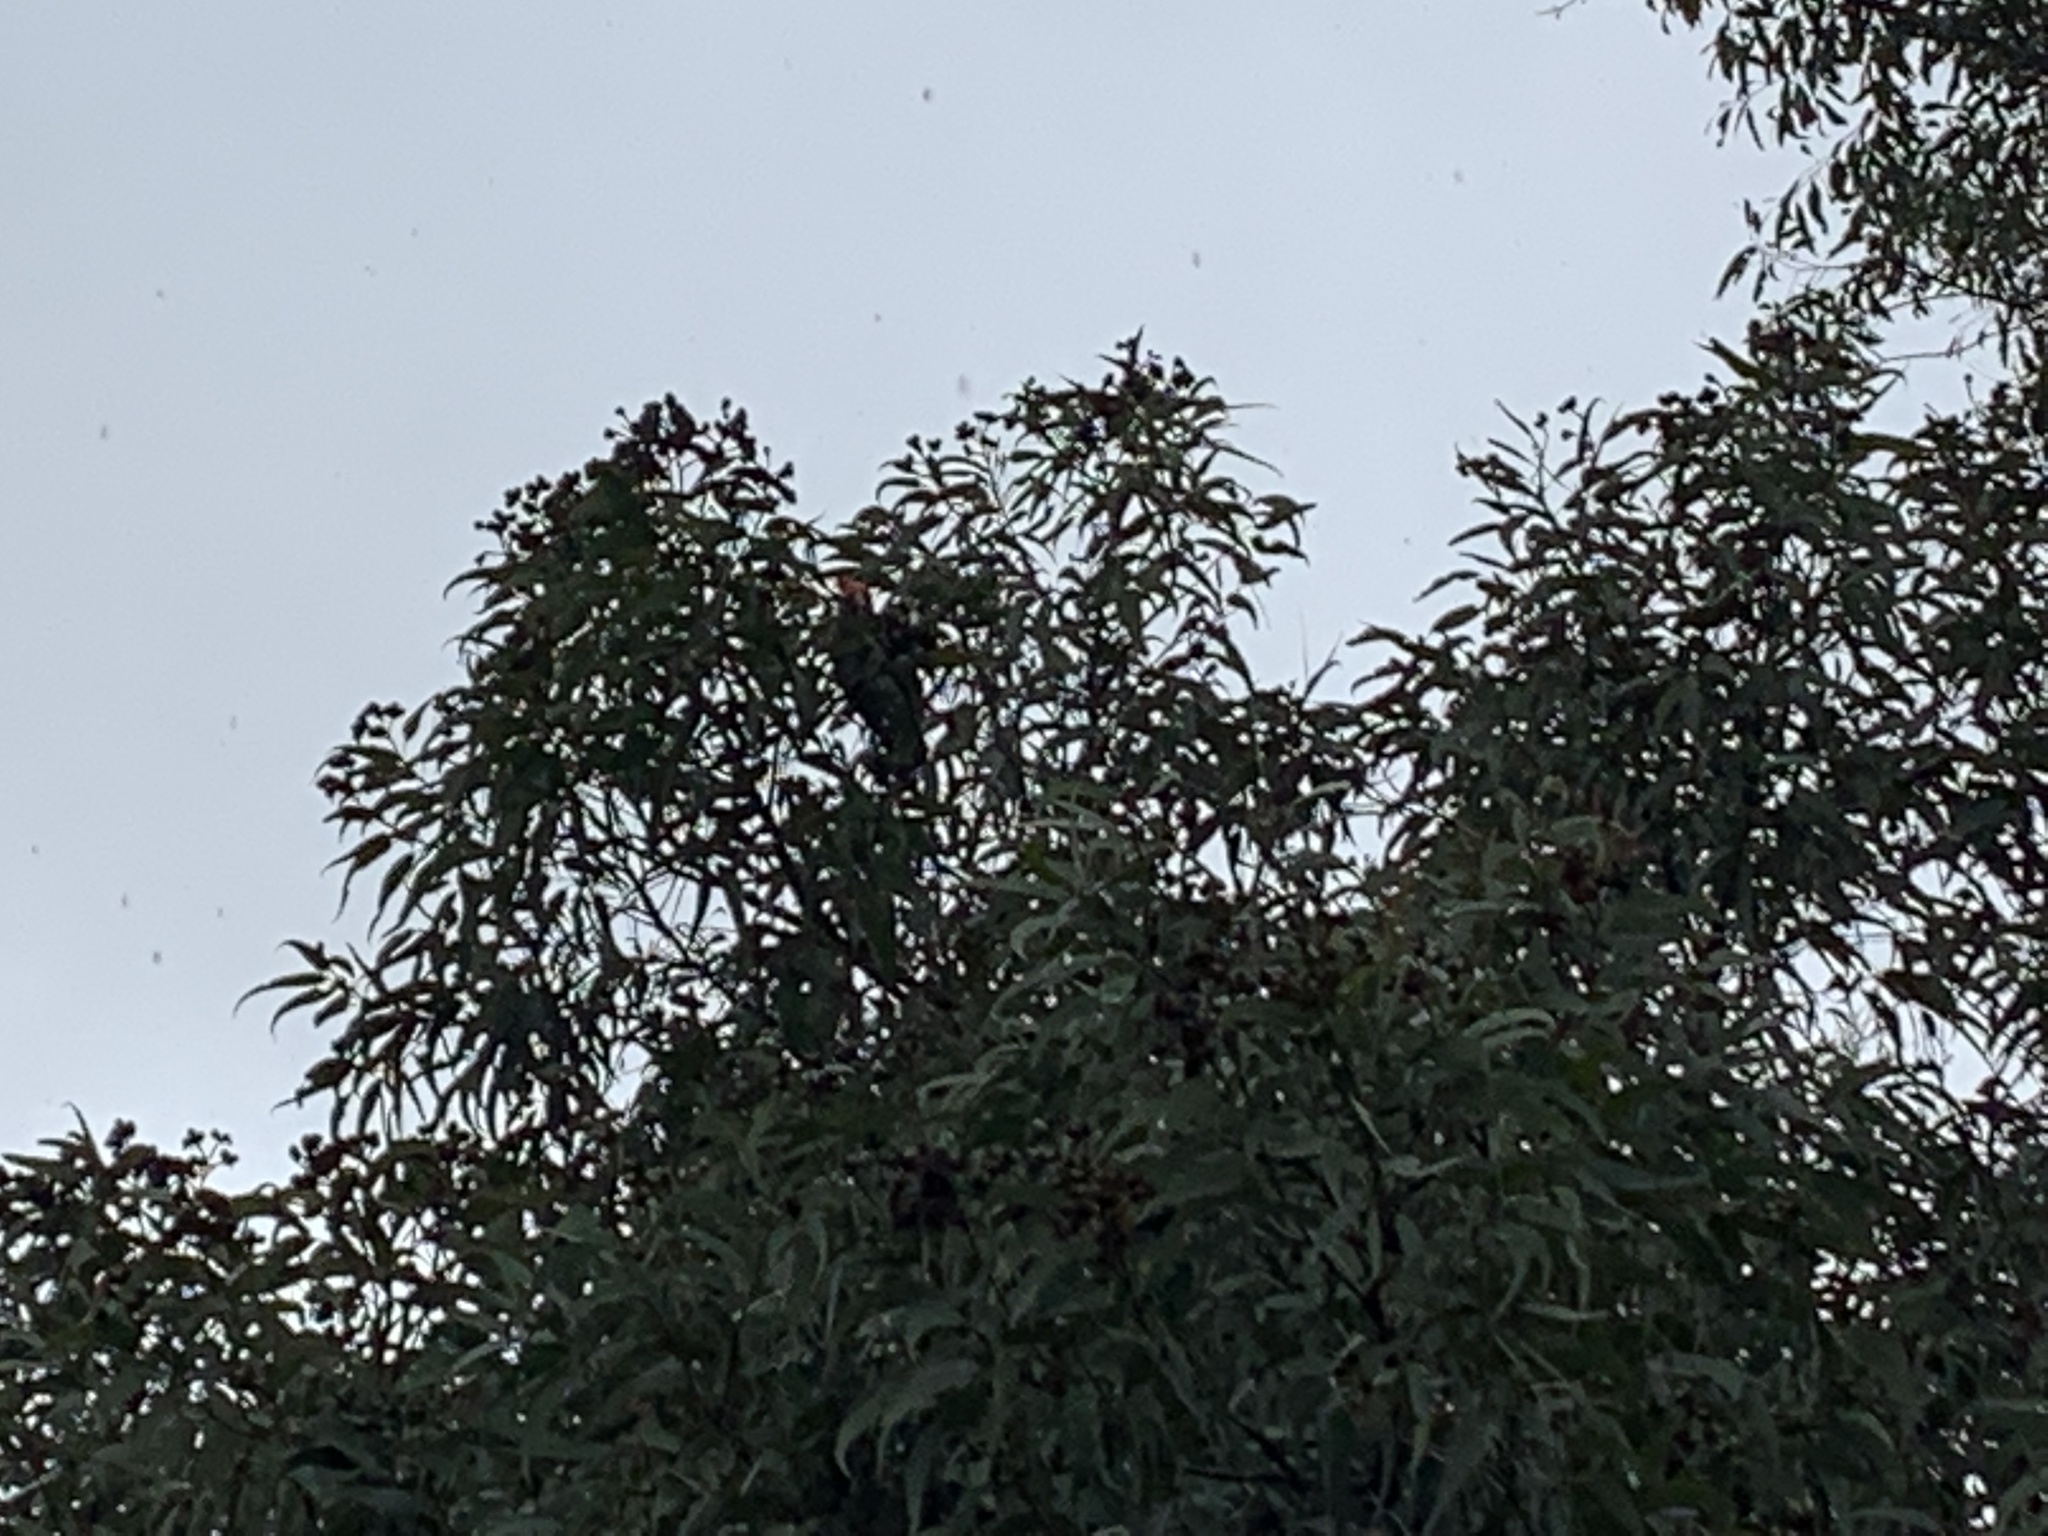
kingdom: Animalia
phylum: Chordata
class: Aves
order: Psittaciformes
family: Psittacidae
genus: Callocephalon
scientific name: Callocephalon fimbriatum
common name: Gang-gang cockatoo
